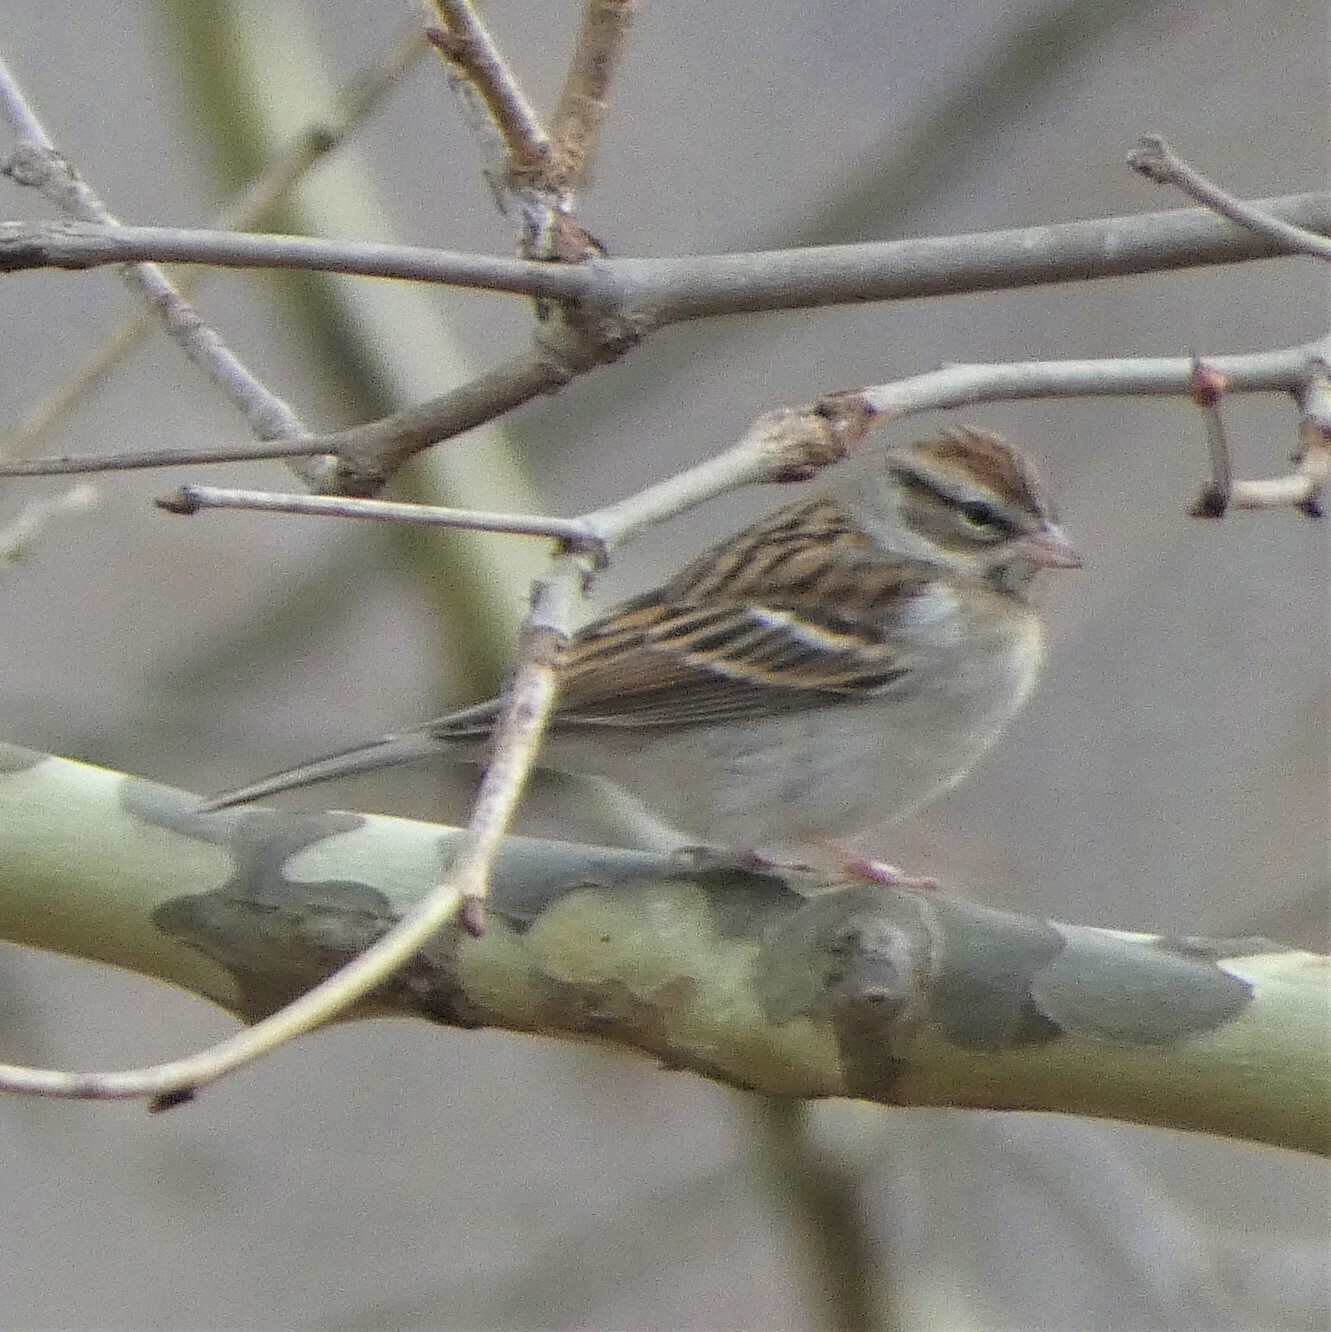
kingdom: Animalia
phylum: Chordata
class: Aves
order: Passeriformes
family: Passerellidae
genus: Spizella
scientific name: Spizella passerina
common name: Chipping sparrow
